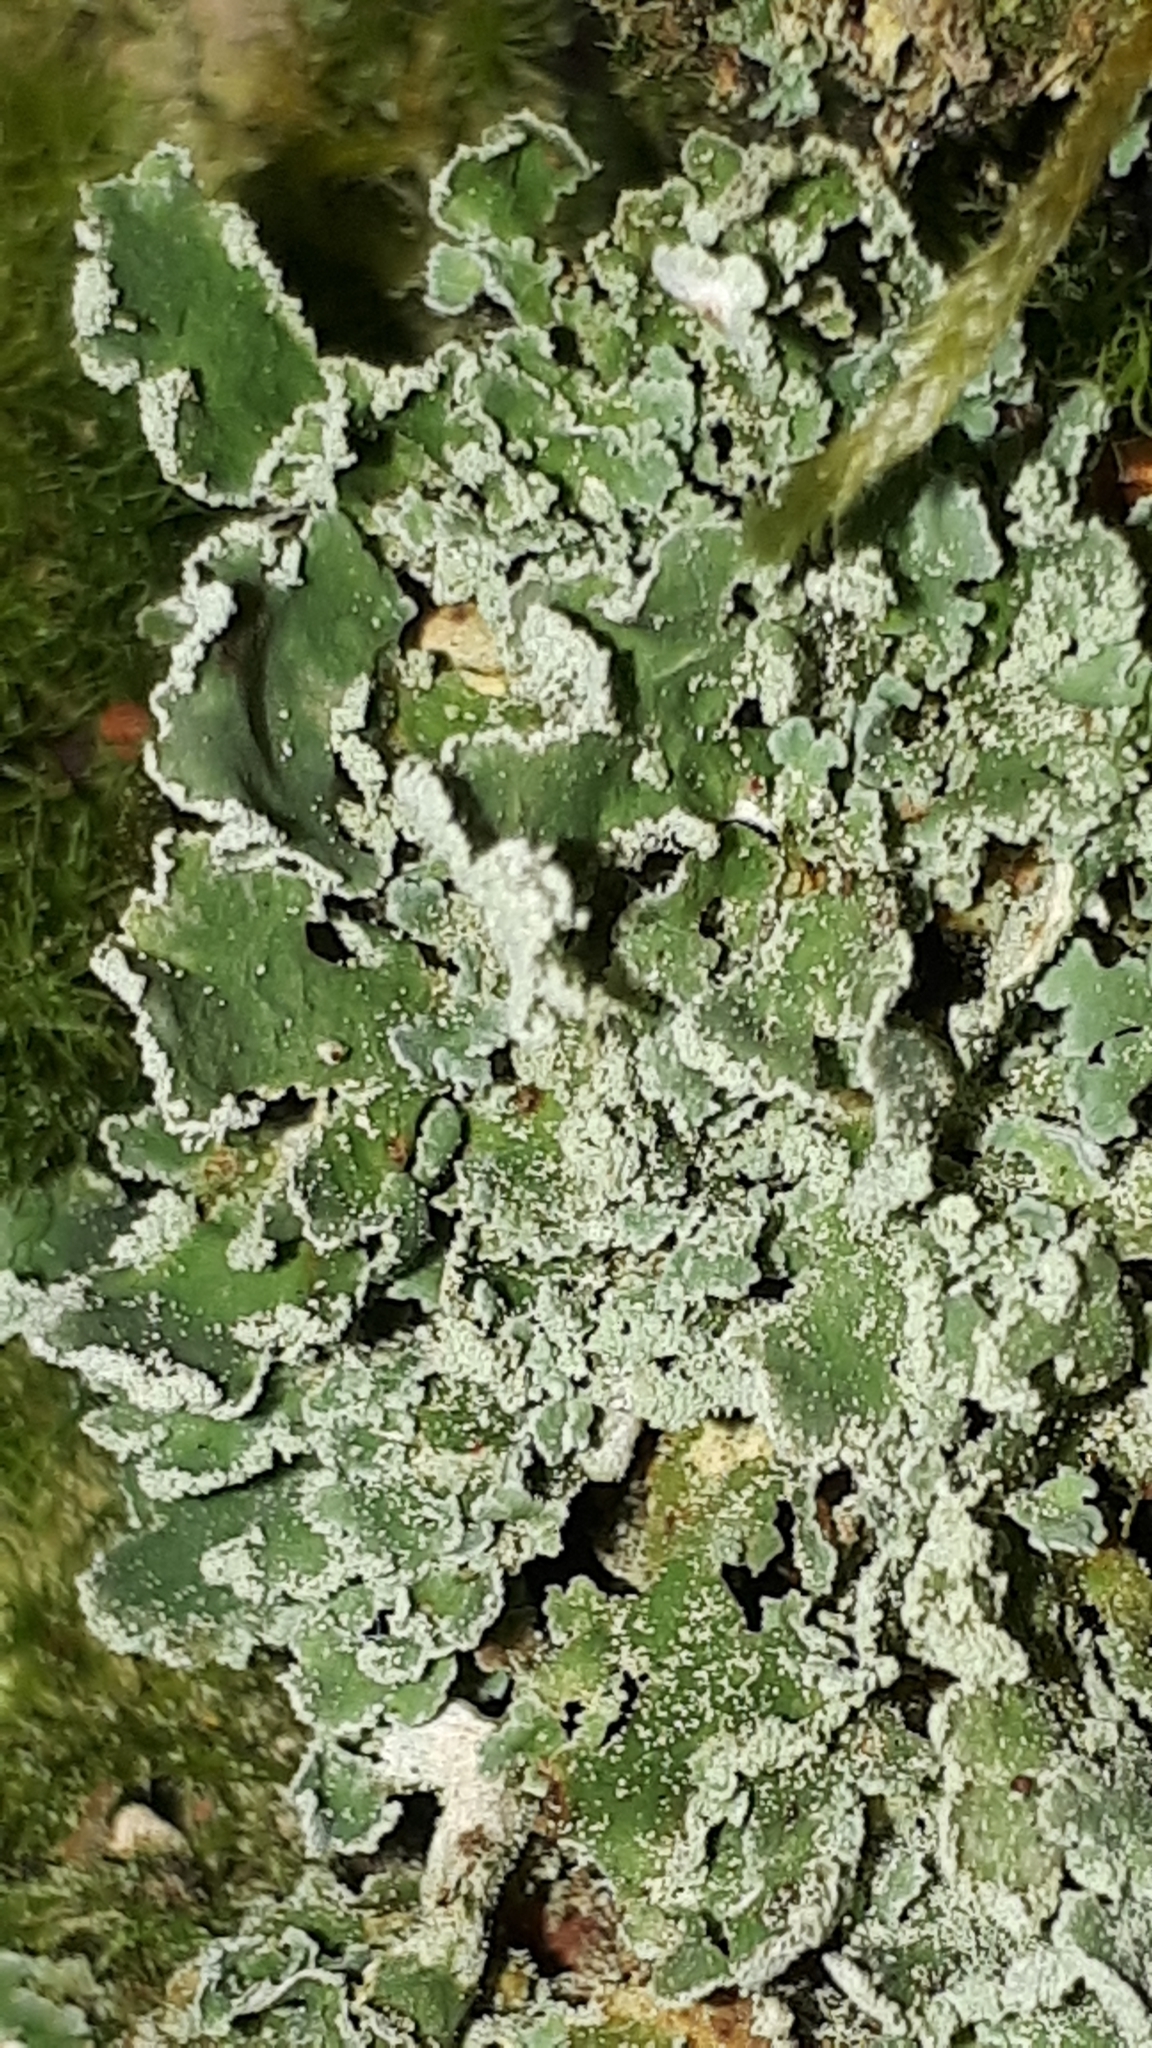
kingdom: Fungi
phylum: Ascomycota
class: Lecanoromycetes
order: Lecanorales
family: Cladoniaceae
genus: Cladonia
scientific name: Cladonia digitata
